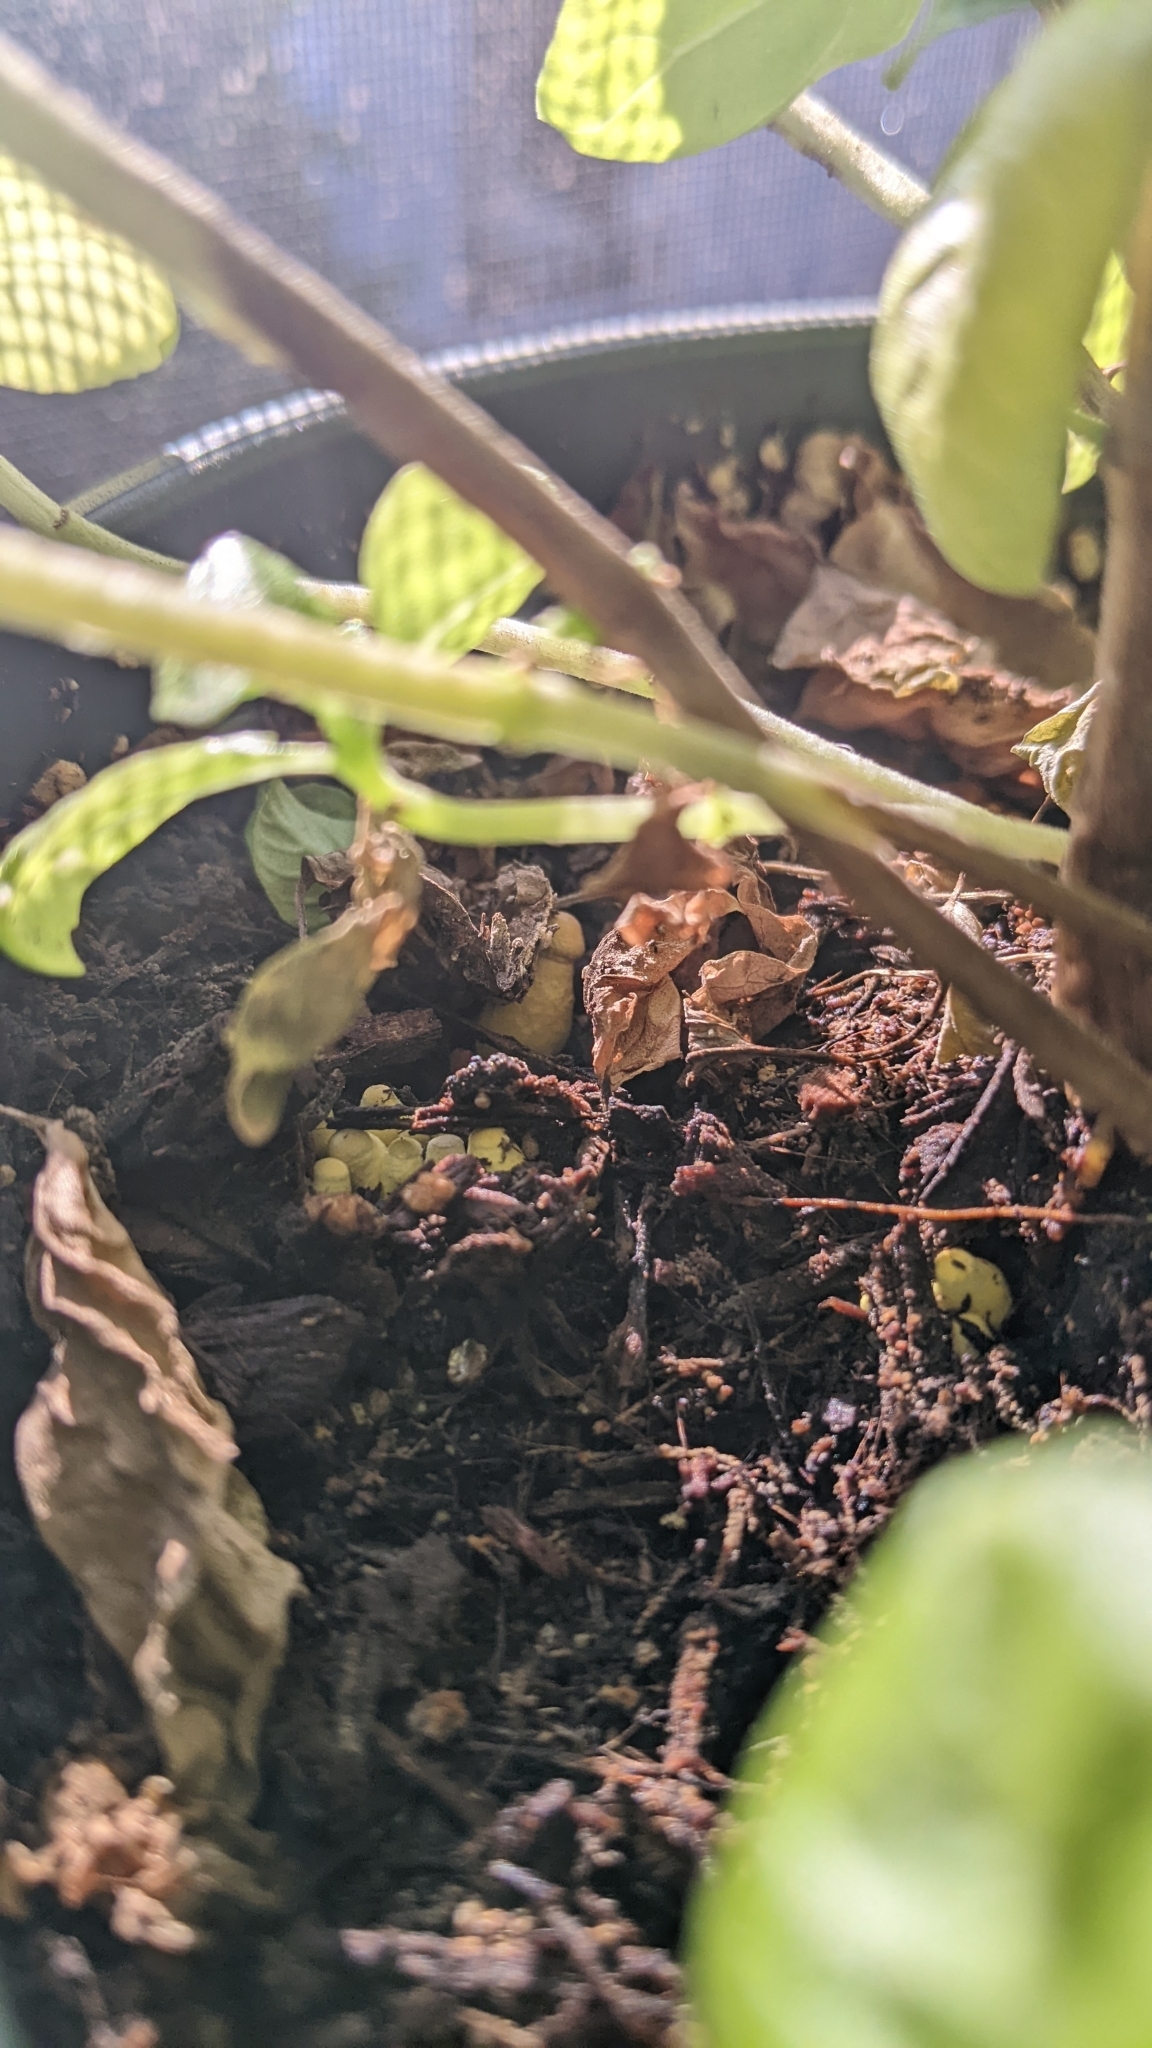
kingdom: Fungi
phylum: Basidiomycota
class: Agaricomycetes
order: Agaricales
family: Agaricaceae
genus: Leucocoprinus
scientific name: Leucocoprinus birnbaumii
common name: Plantpot dapperling
